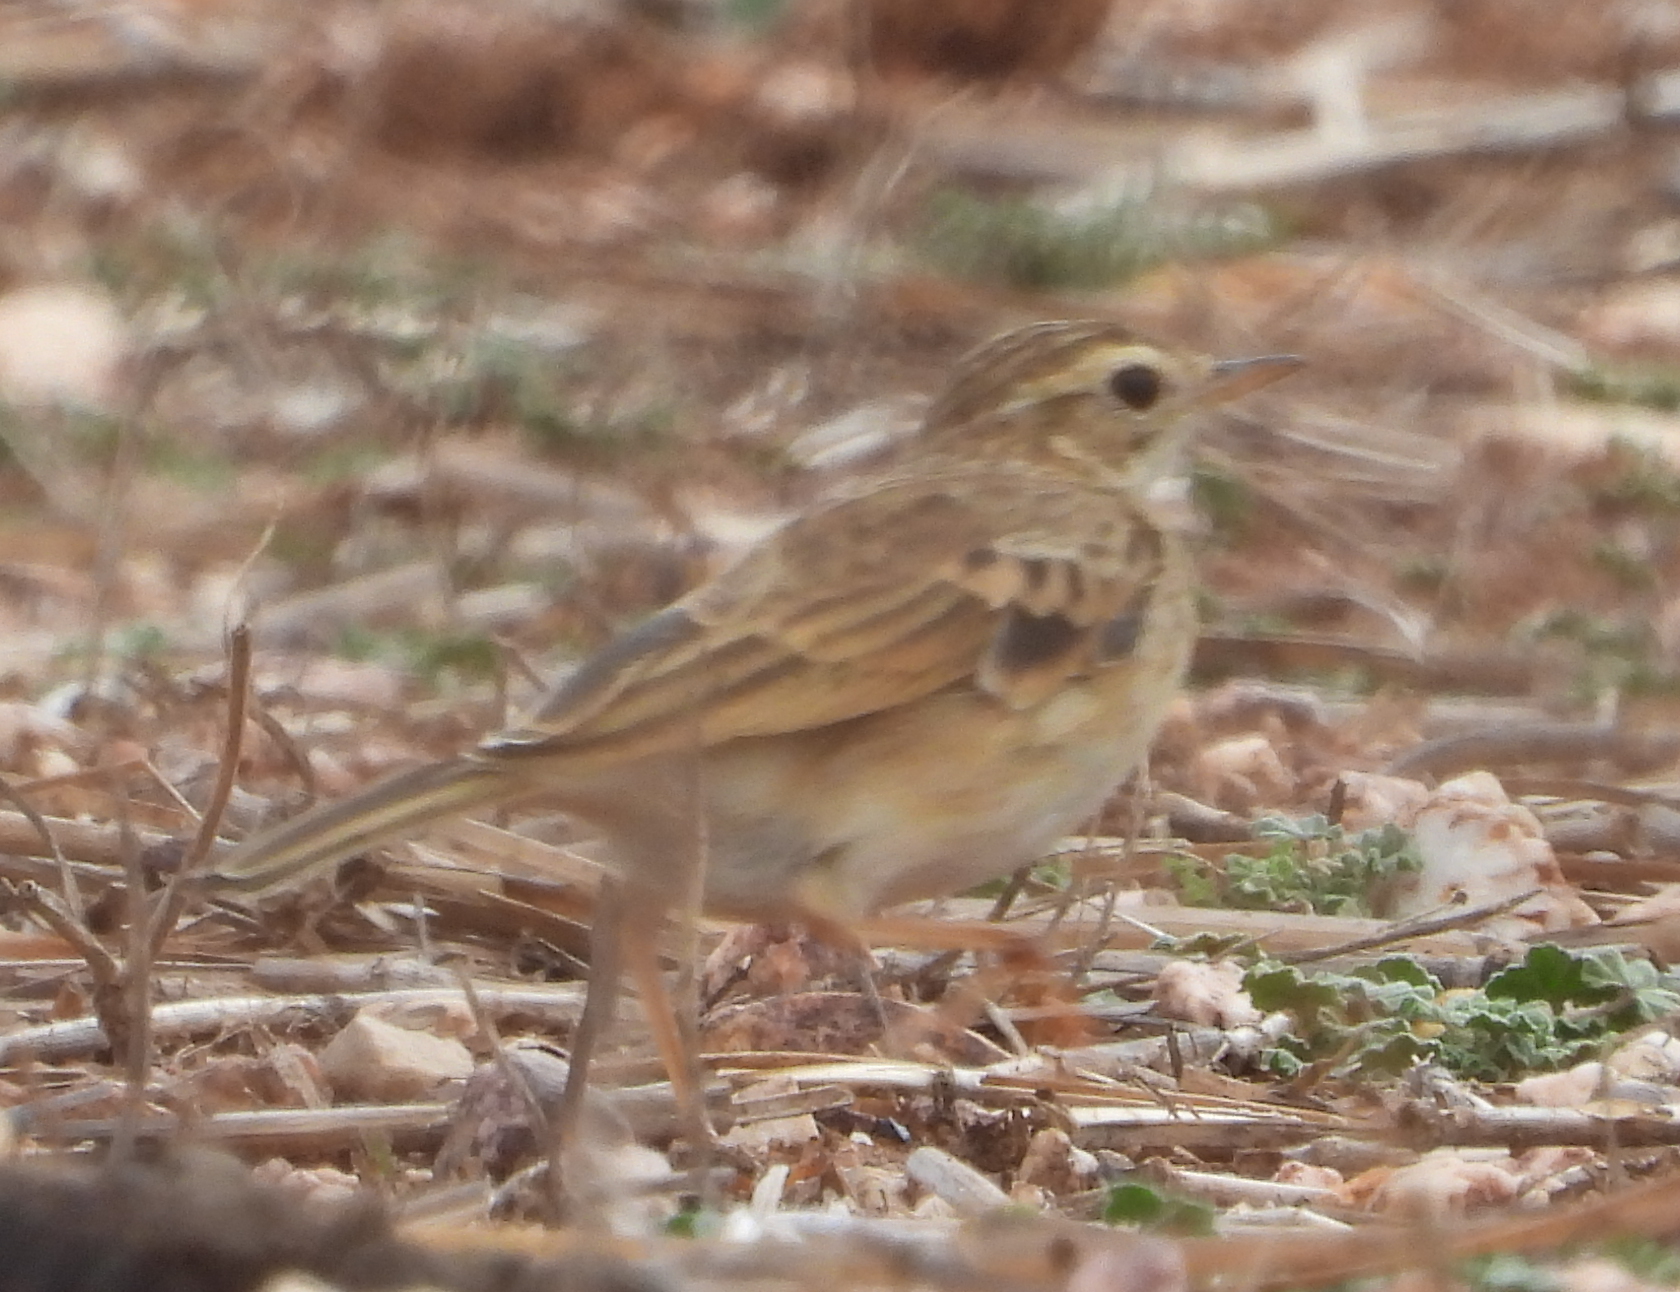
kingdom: Animalia
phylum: Chordata
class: Aves
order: Passeriformes
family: Motacillidae
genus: Anthus
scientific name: Anthus cinnamomeus
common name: African pipit
